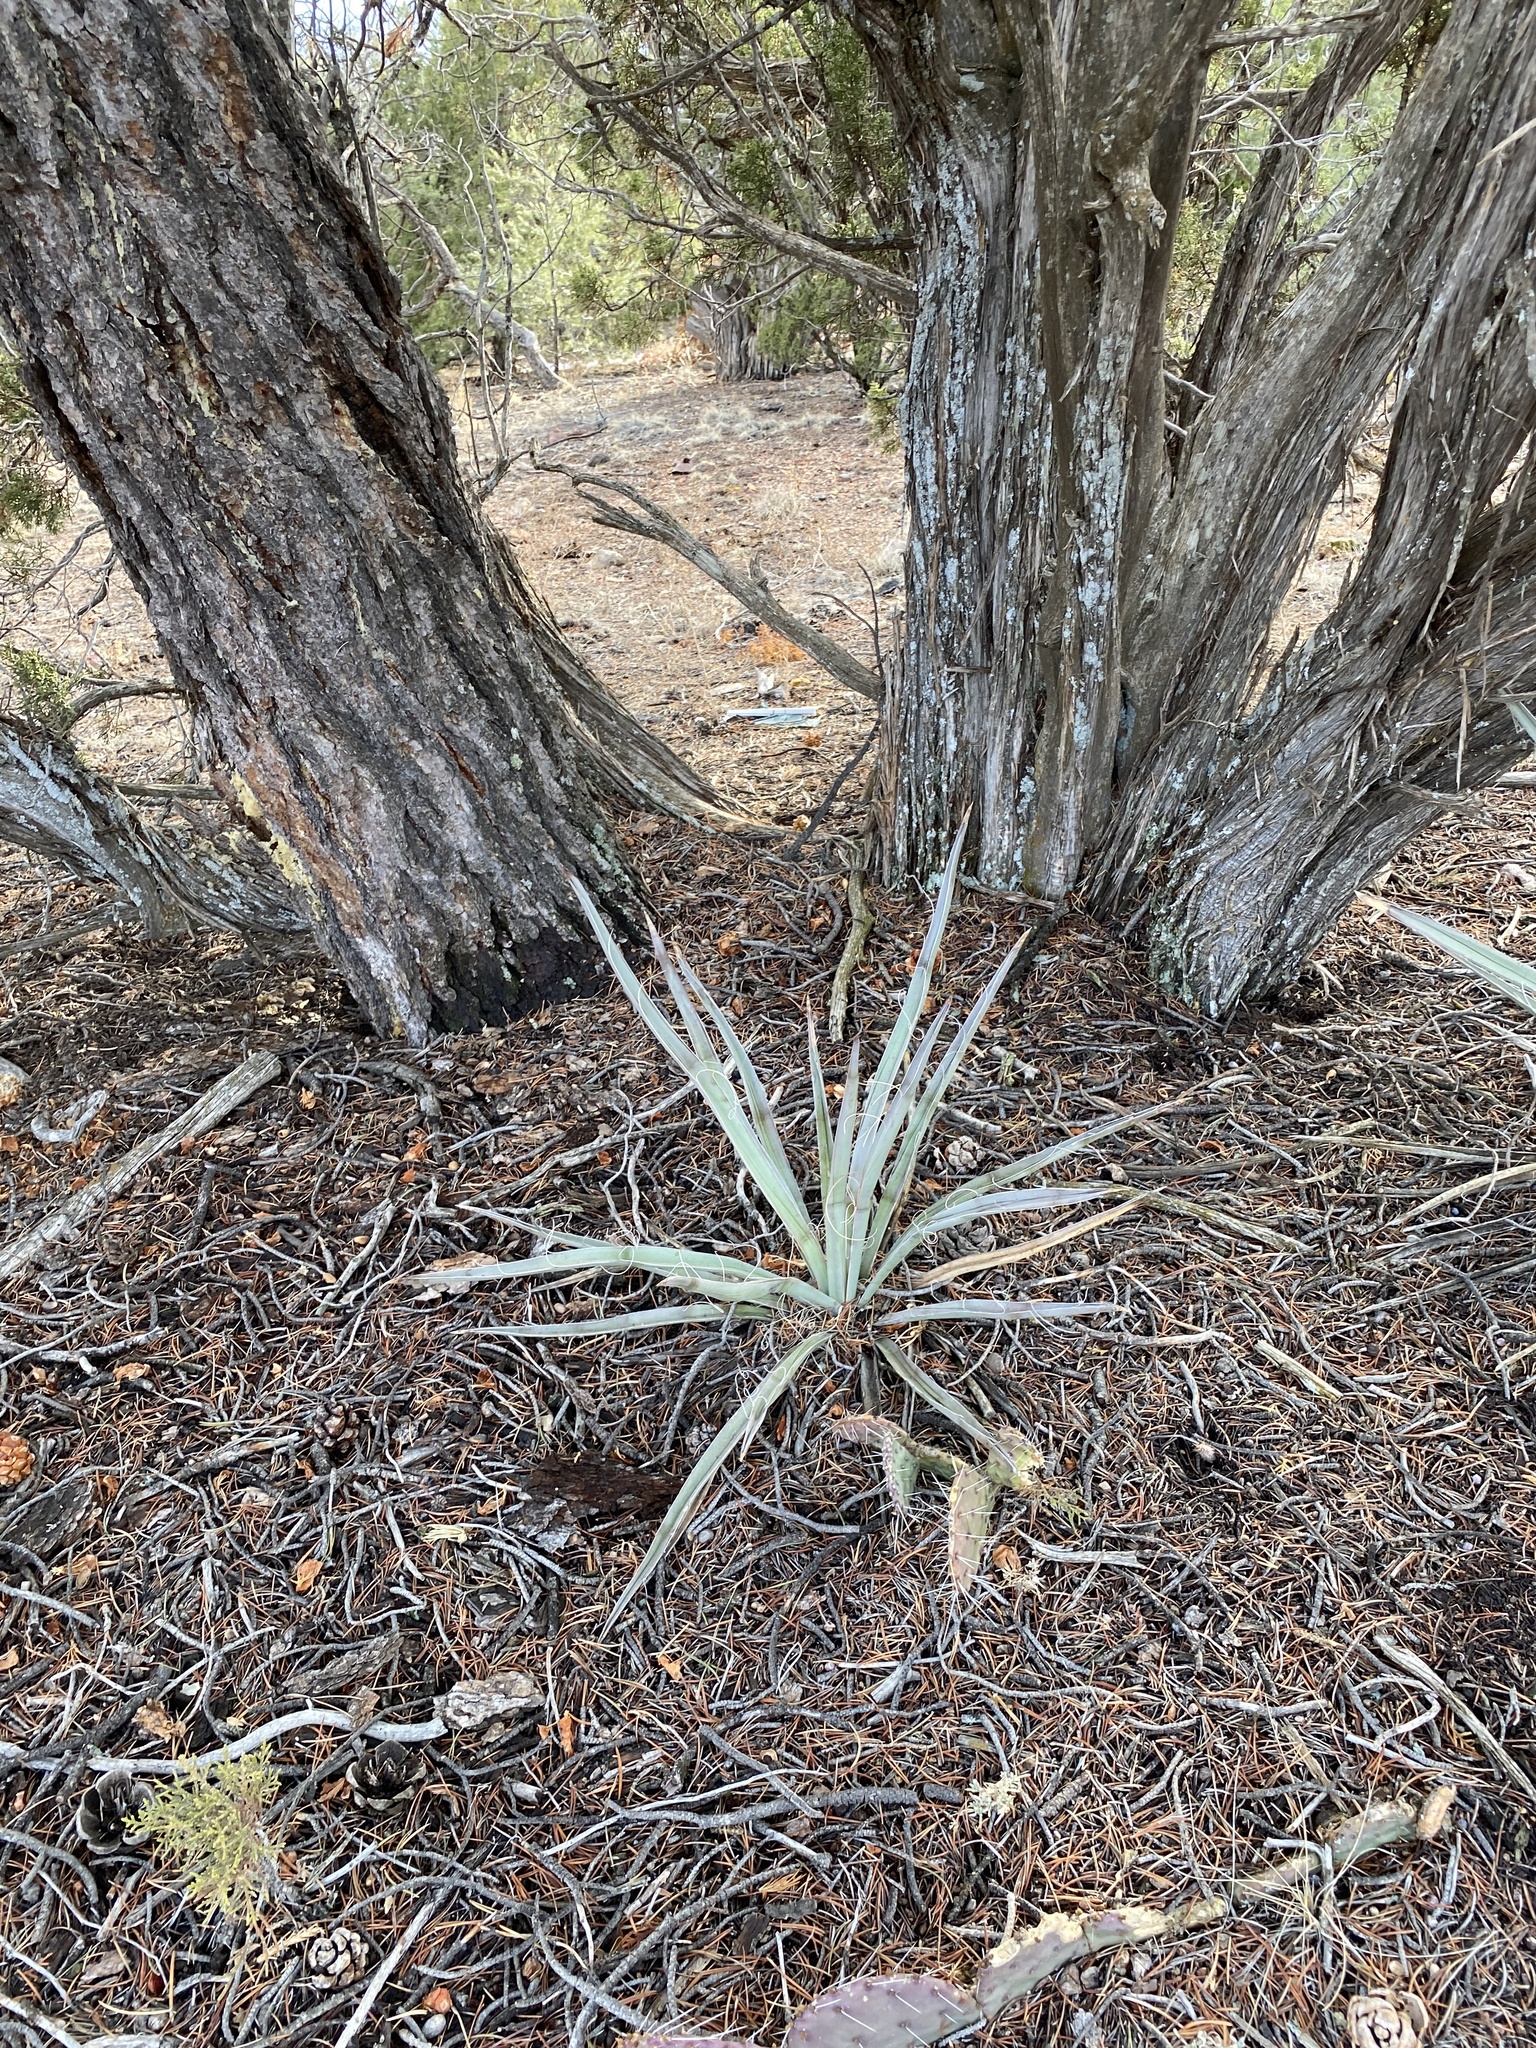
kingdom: Plantae
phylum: Tracheophyta
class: Liliopsida
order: Asparagales
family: Asparagaceae
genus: Yucca
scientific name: Yucca baccata
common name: Banana yucca
